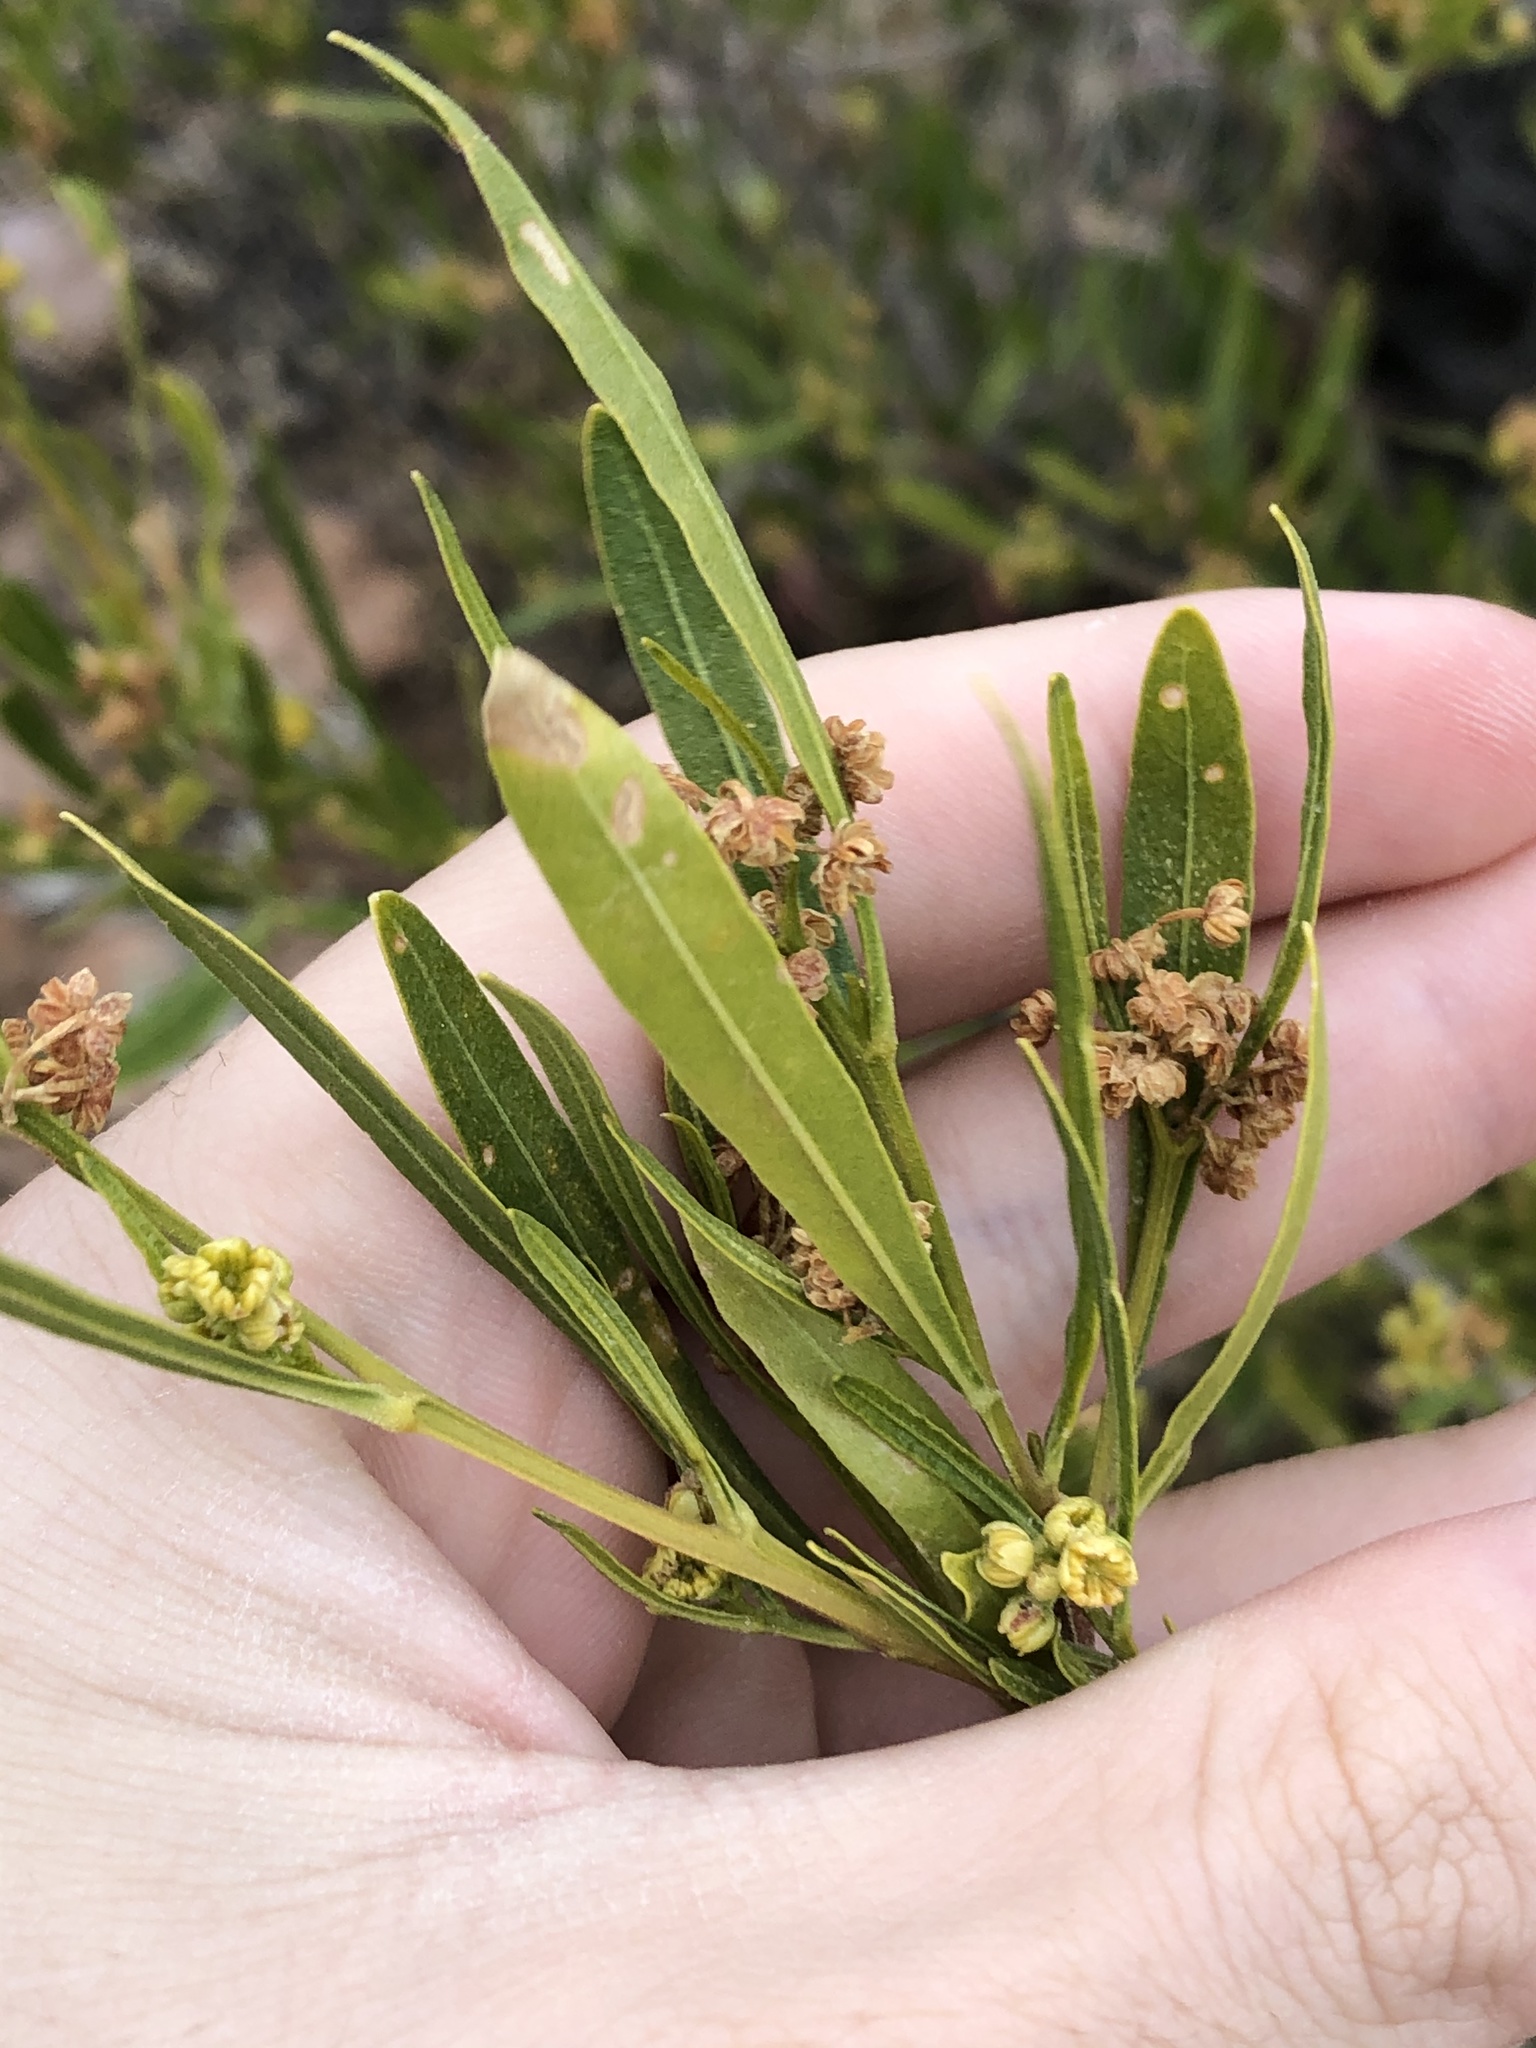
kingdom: Plantae
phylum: Tracheophyta
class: Magnoliopsida
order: Sapindales
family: Sapindaceae
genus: Dodonaea
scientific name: Dodonaea viscosa
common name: Hopbush
